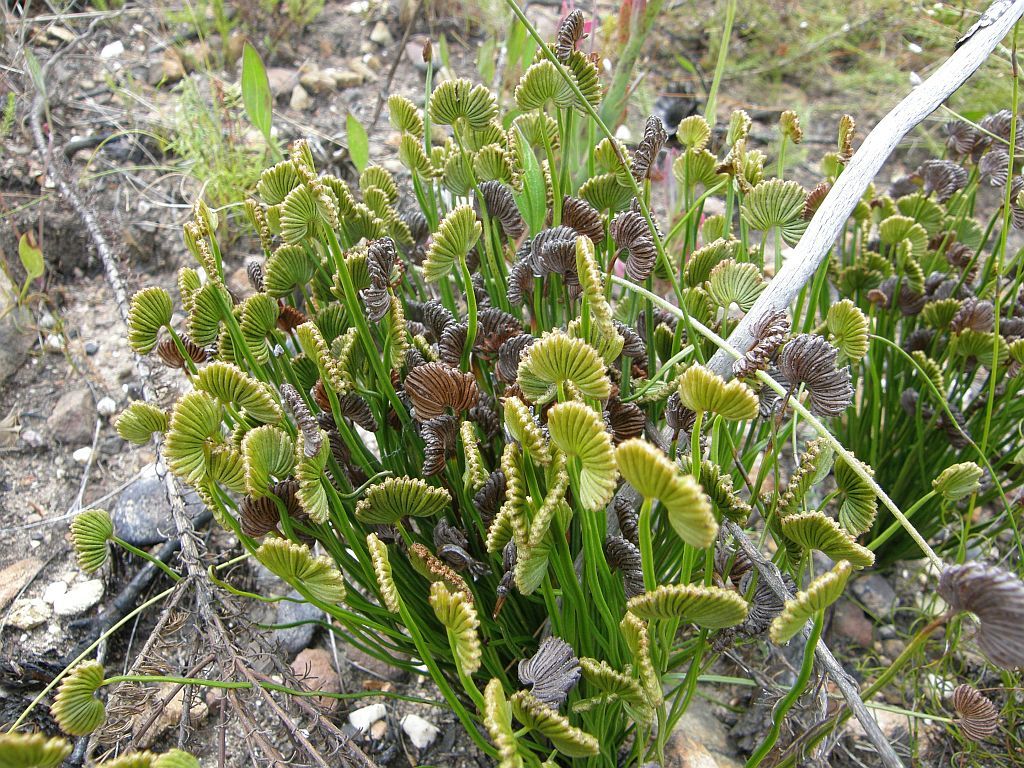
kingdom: Plantae
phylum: Tracheophyta
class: Polypodiopsida
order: Schizaeales
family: Schizaeaceae
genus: Schizaea
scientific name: Schizaea pectinata
